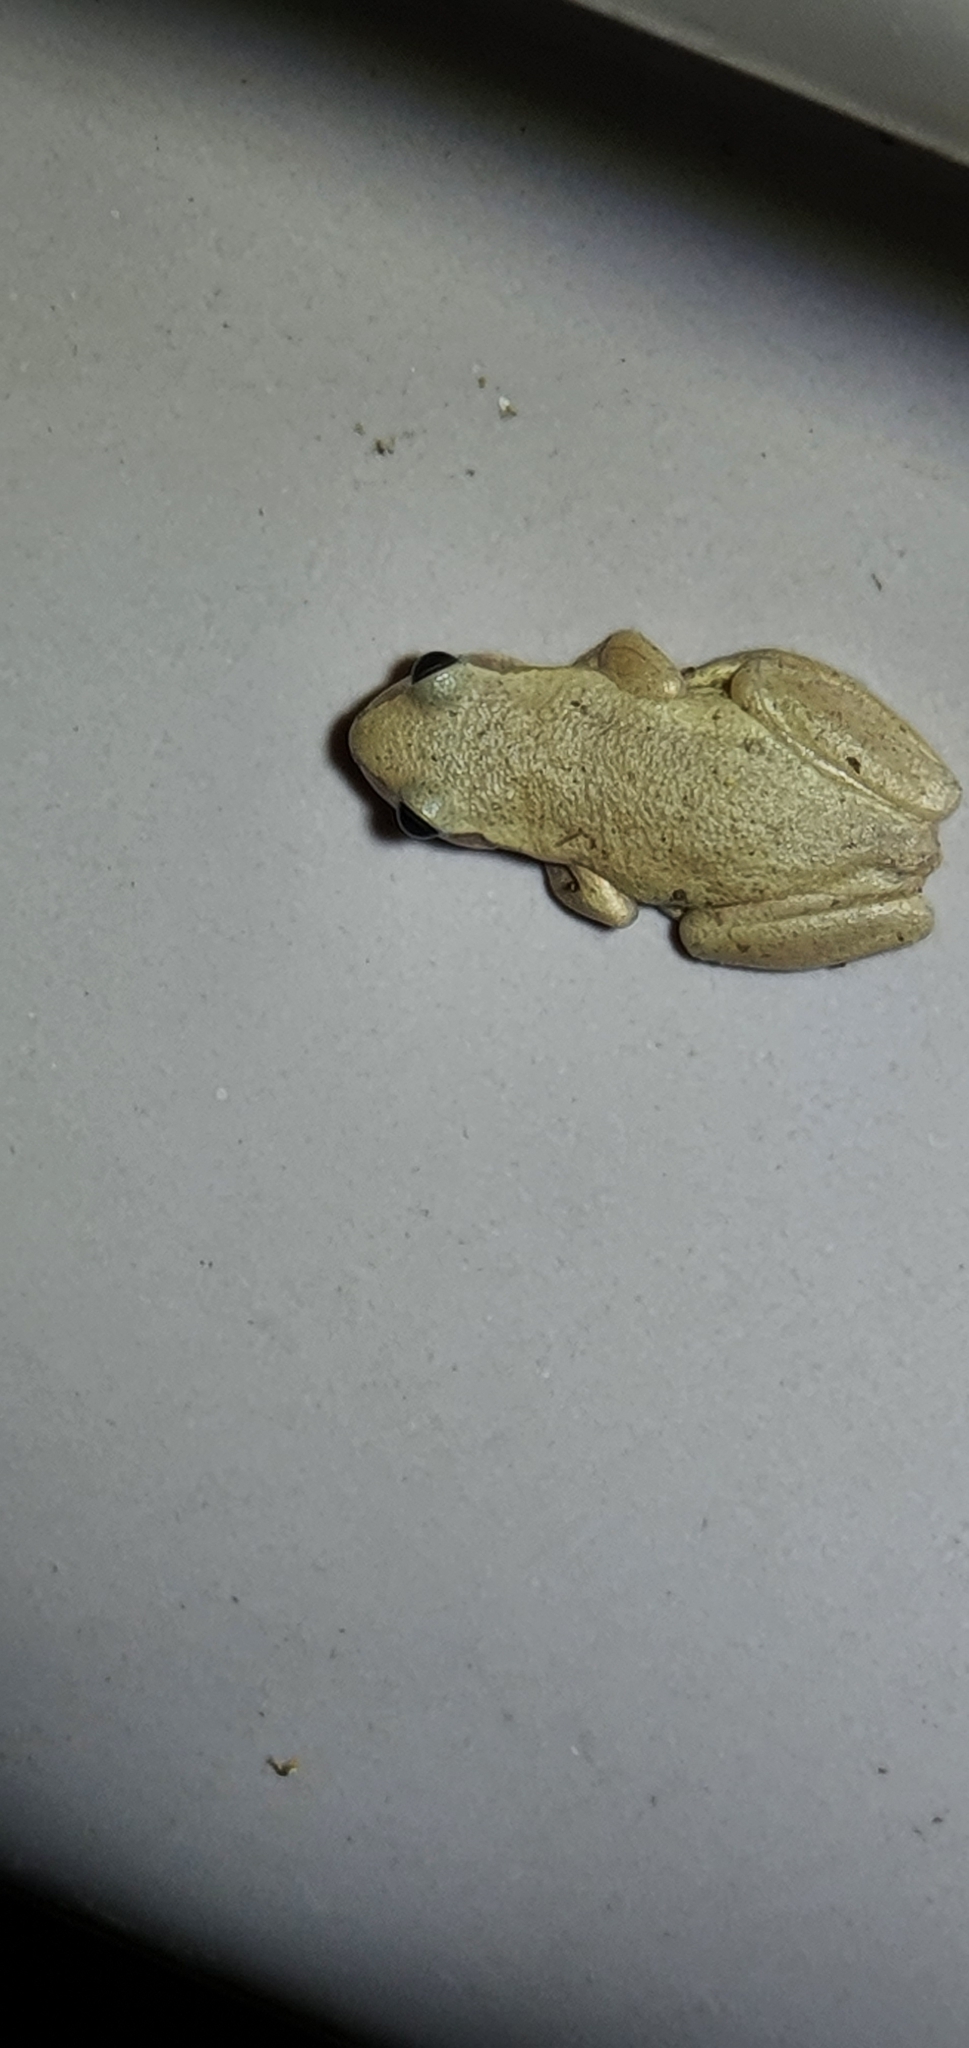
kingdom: Animalia
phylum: Chordata
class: Amphibia
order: Anura
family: Pelodryadidae
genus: Litoria
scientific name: Litoria rubella
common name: Desert tree frog
